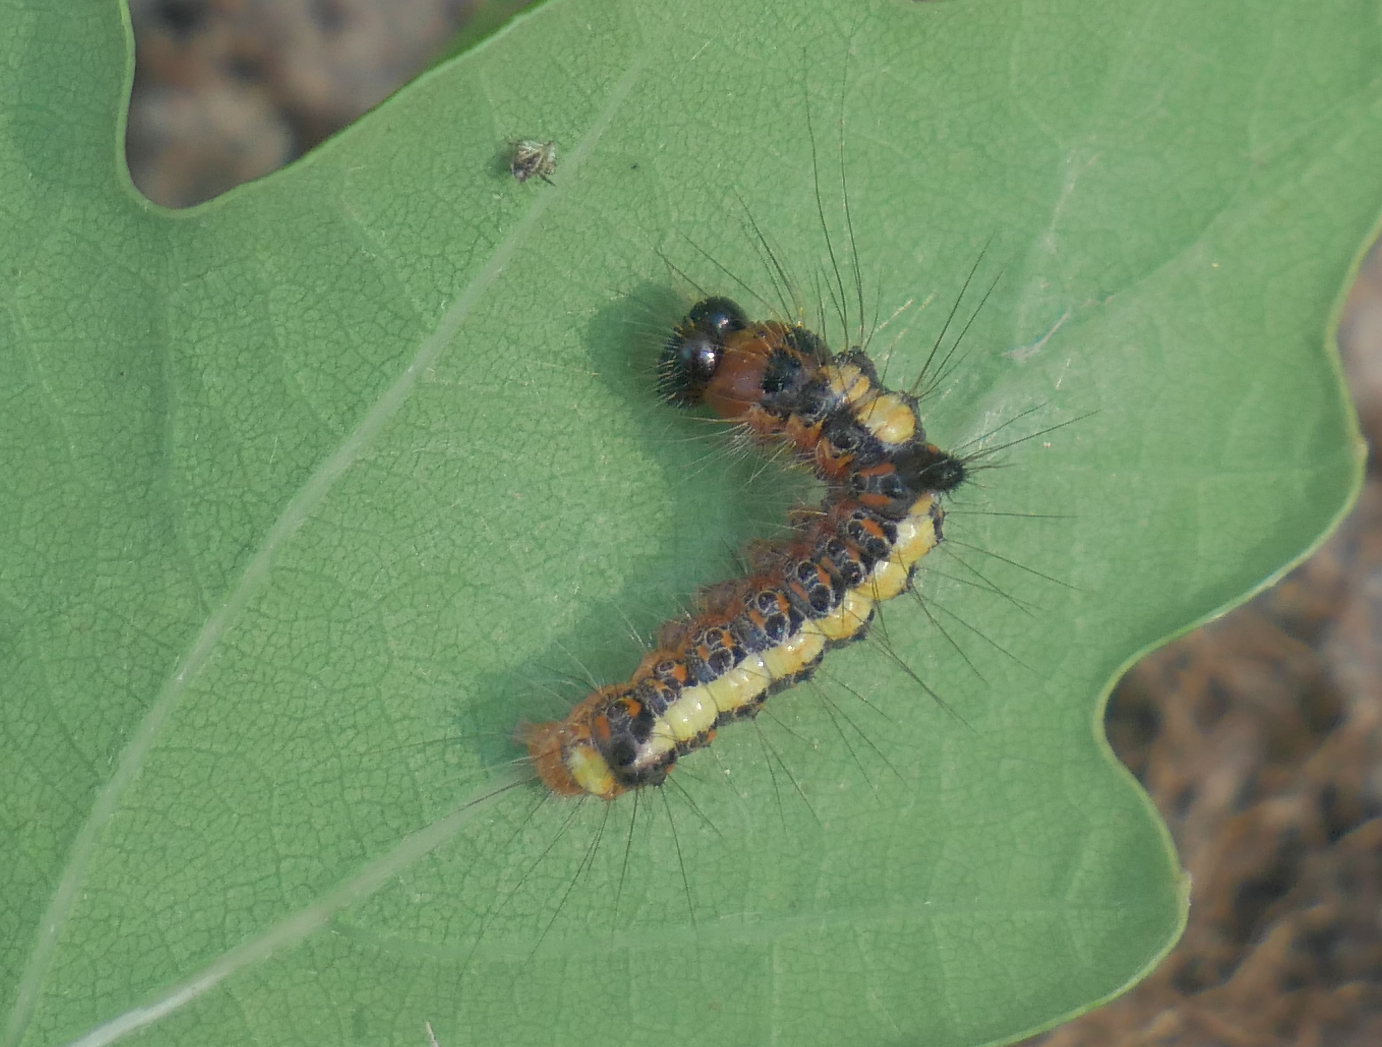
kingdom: Animalia
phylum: Arthropoda
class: Insecta
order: Lepidoptera
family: Noctuidae
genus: Acronicta
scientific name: Acronicta psi
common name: Grey dagger
